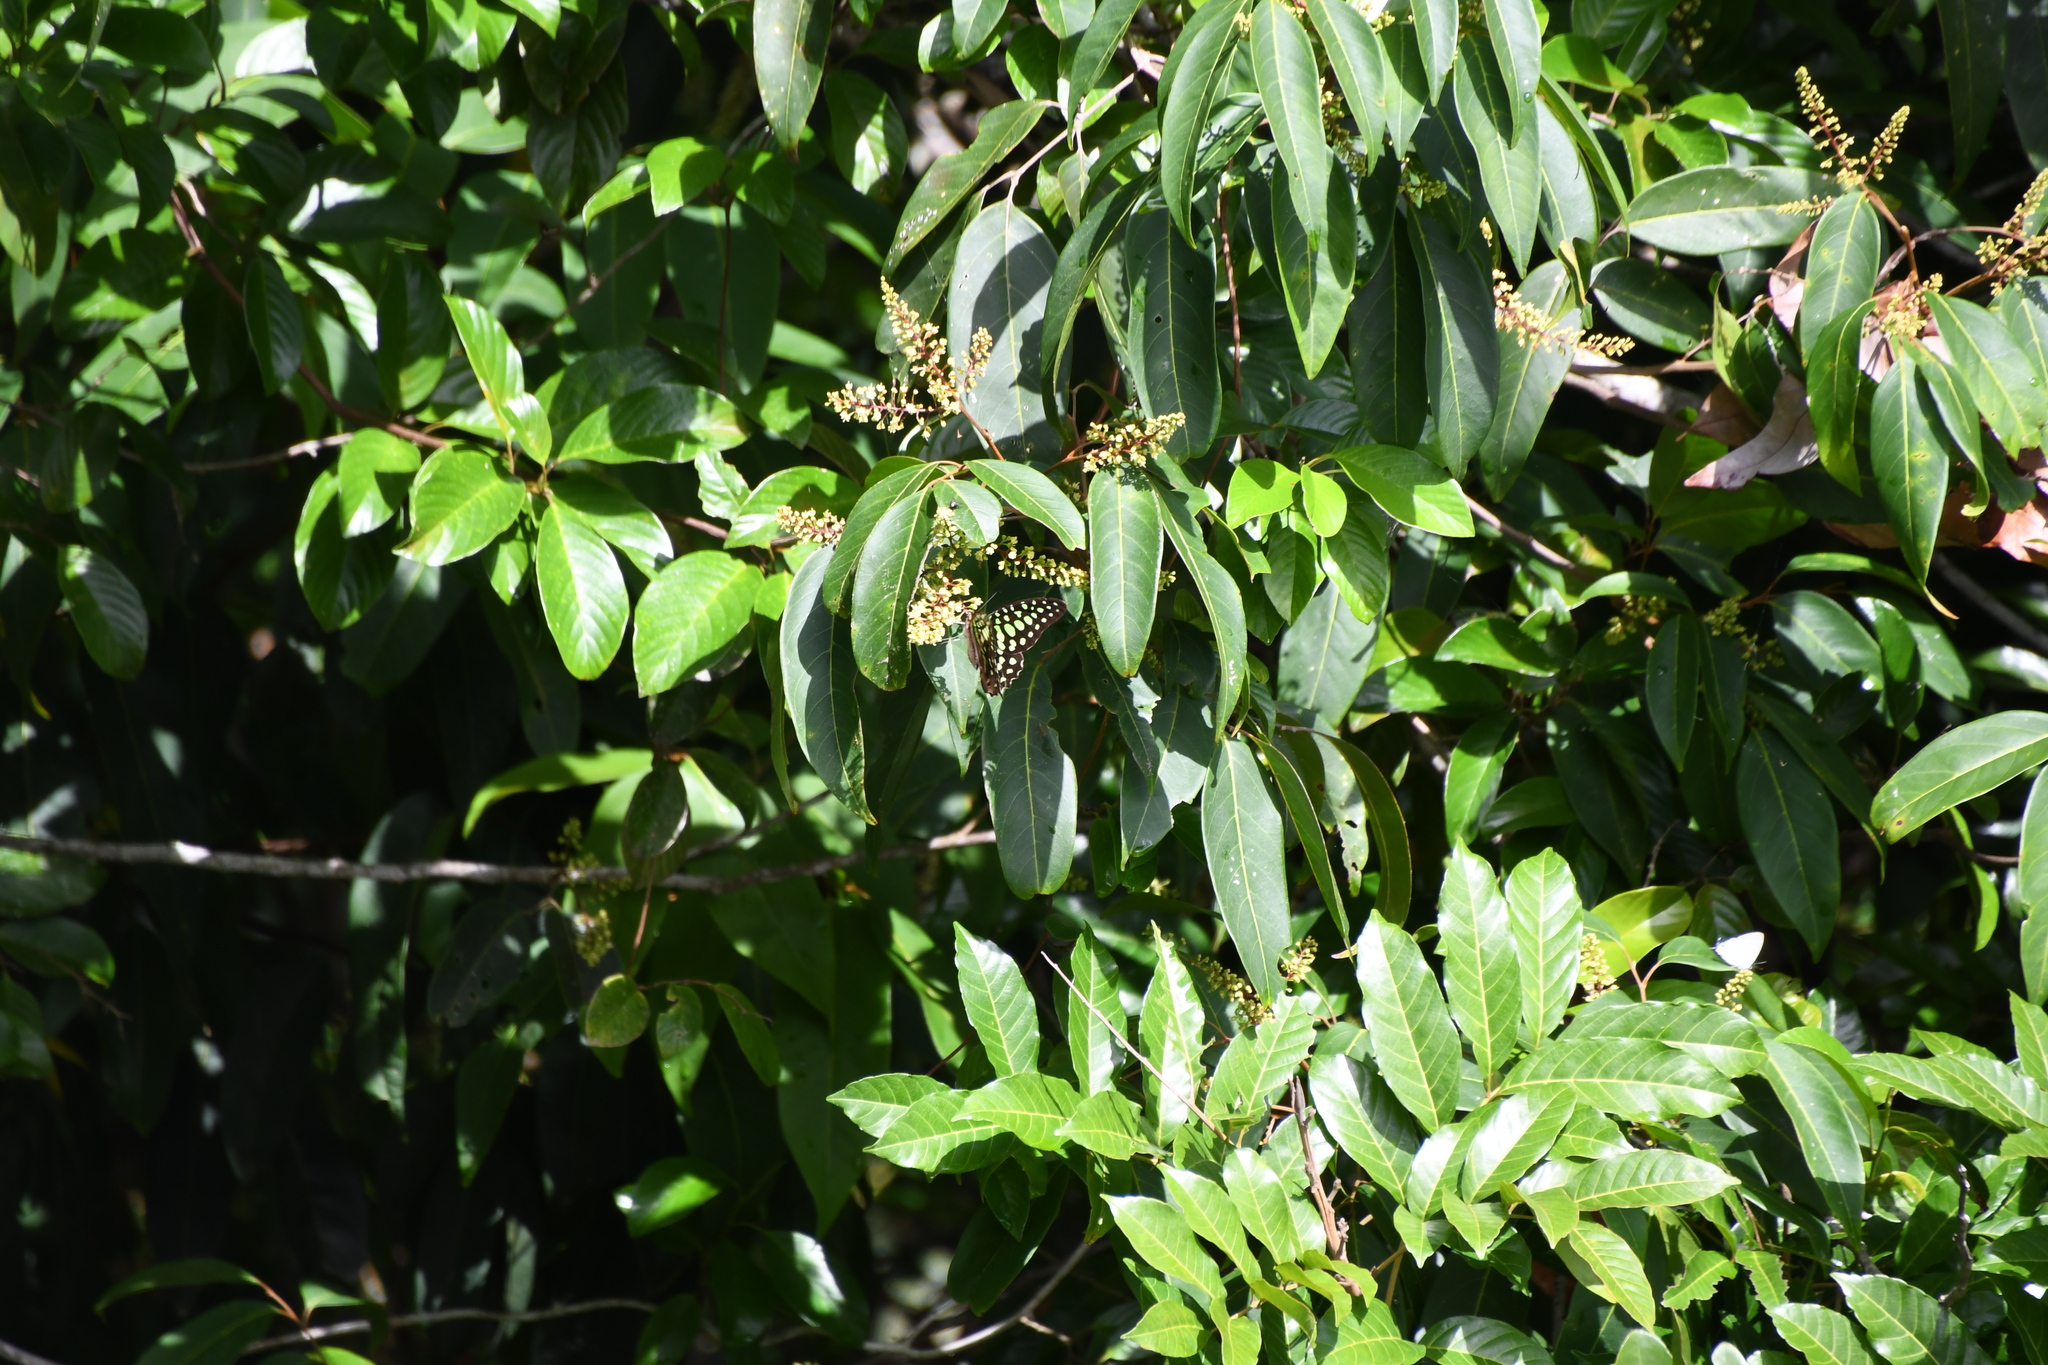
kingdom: Animalia
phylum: Arthropoda
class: Insecta
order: Lepidoptera
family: Papilionidae
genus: Graphium
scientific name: Graphium agamemnon
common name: Tailed jay
